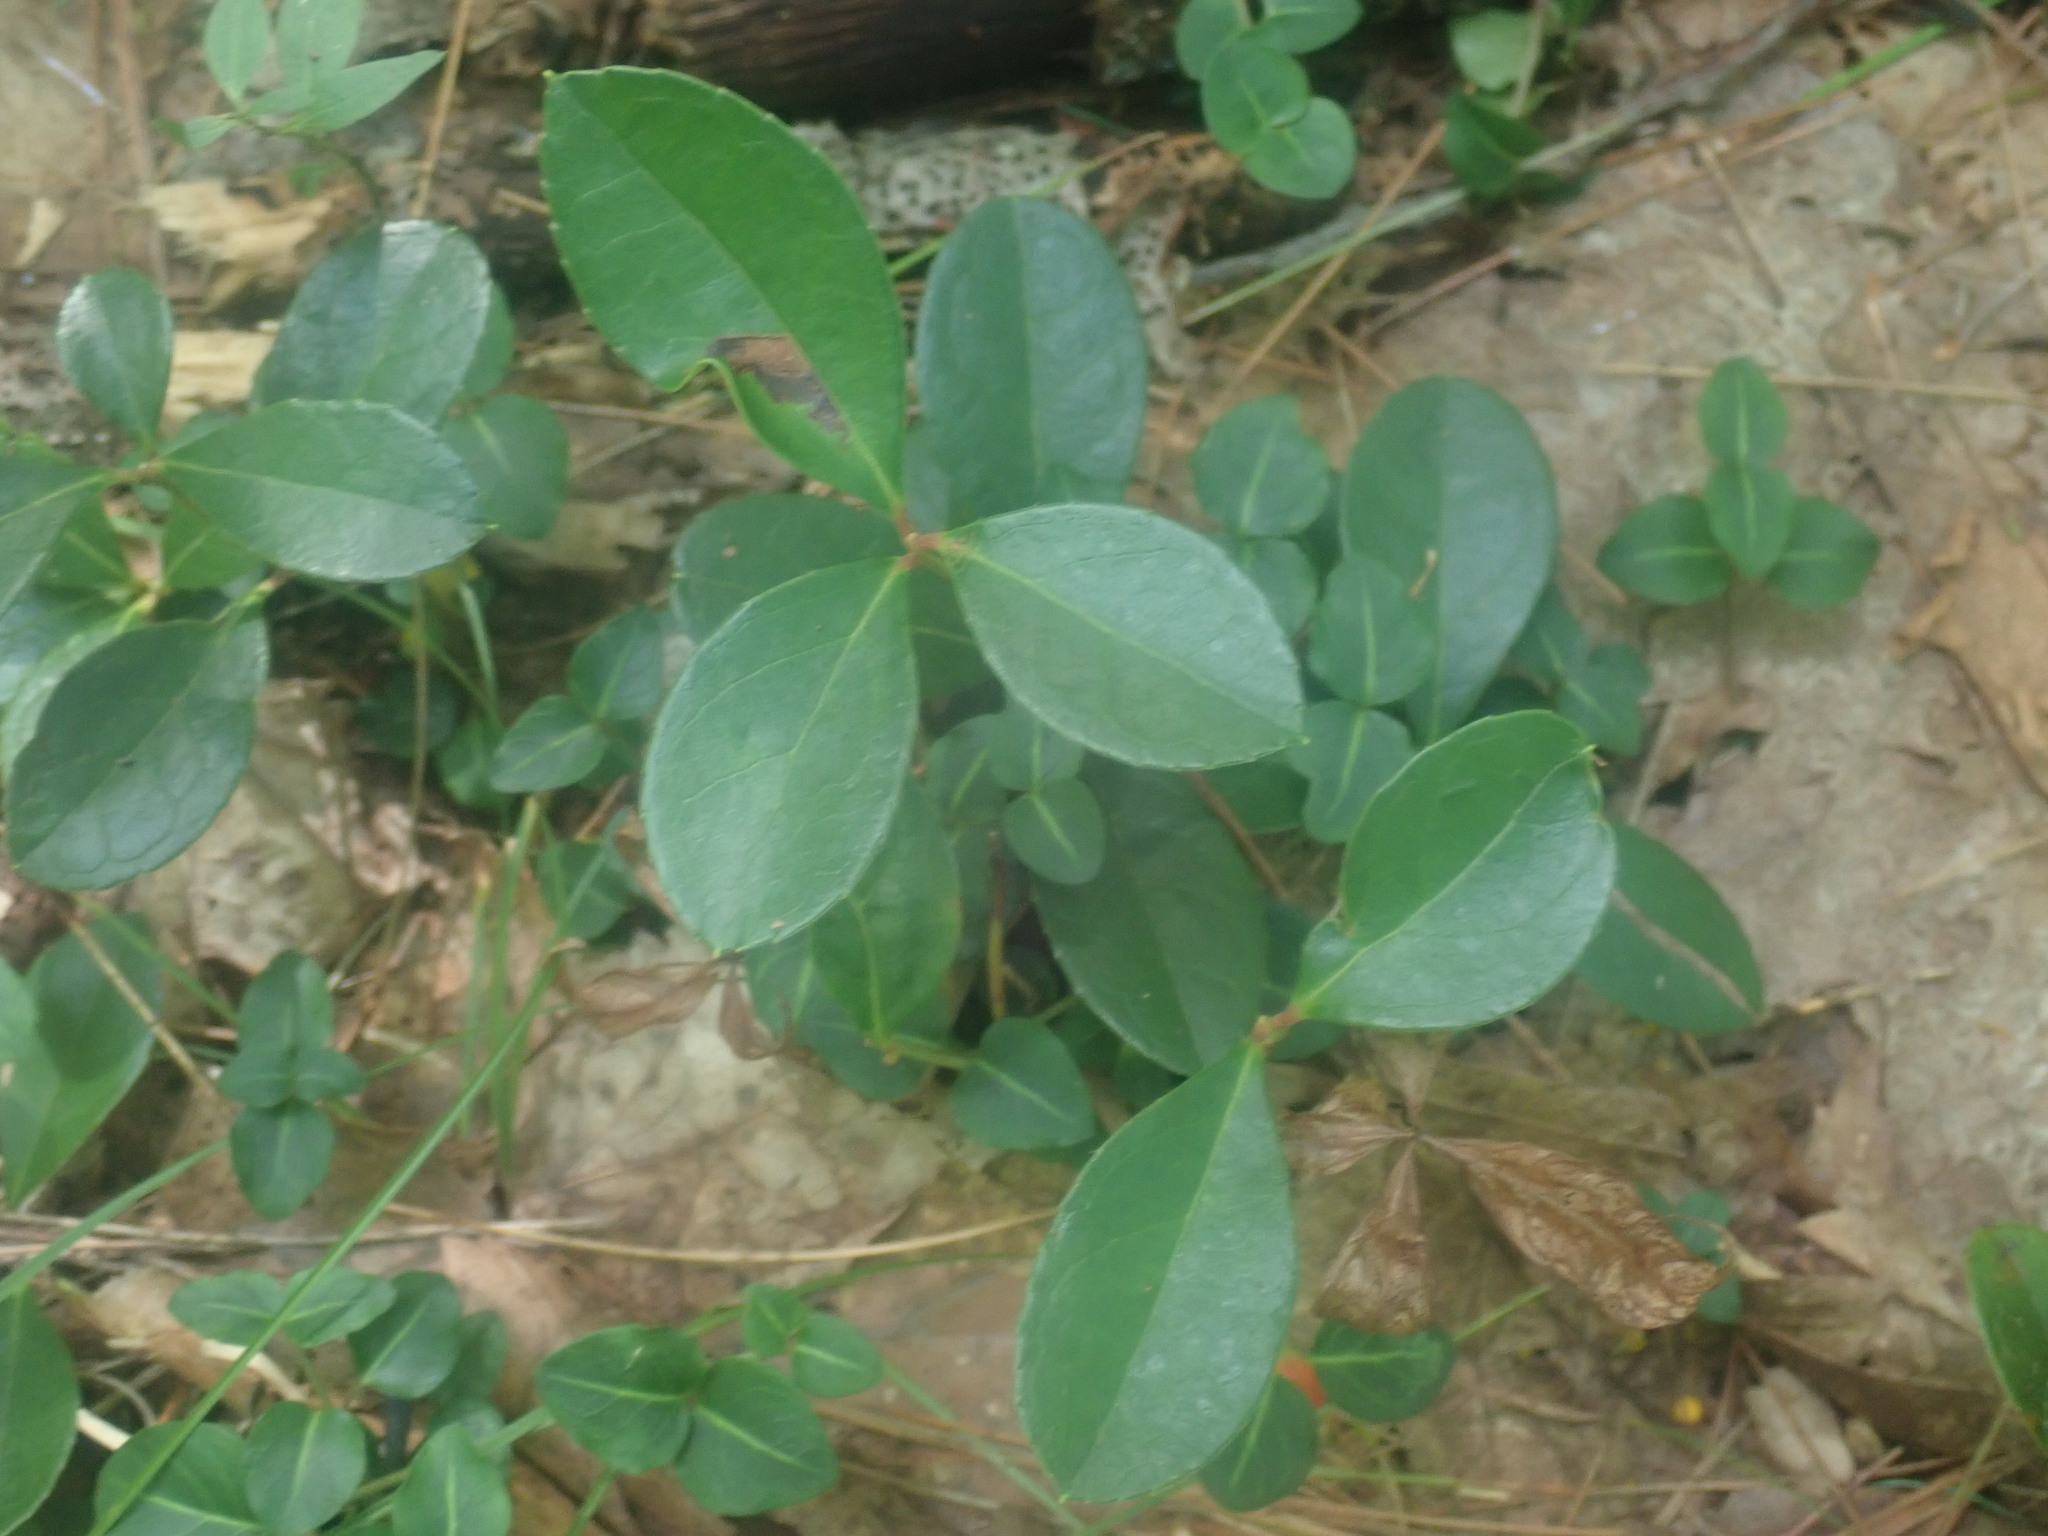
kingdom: Plantae
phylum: Tracheophyta
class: Magnoliopsida
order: Ericales
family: Ericaceae
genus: Gaultheria
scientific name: Gaultheria procumbens
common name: Checkerberry
